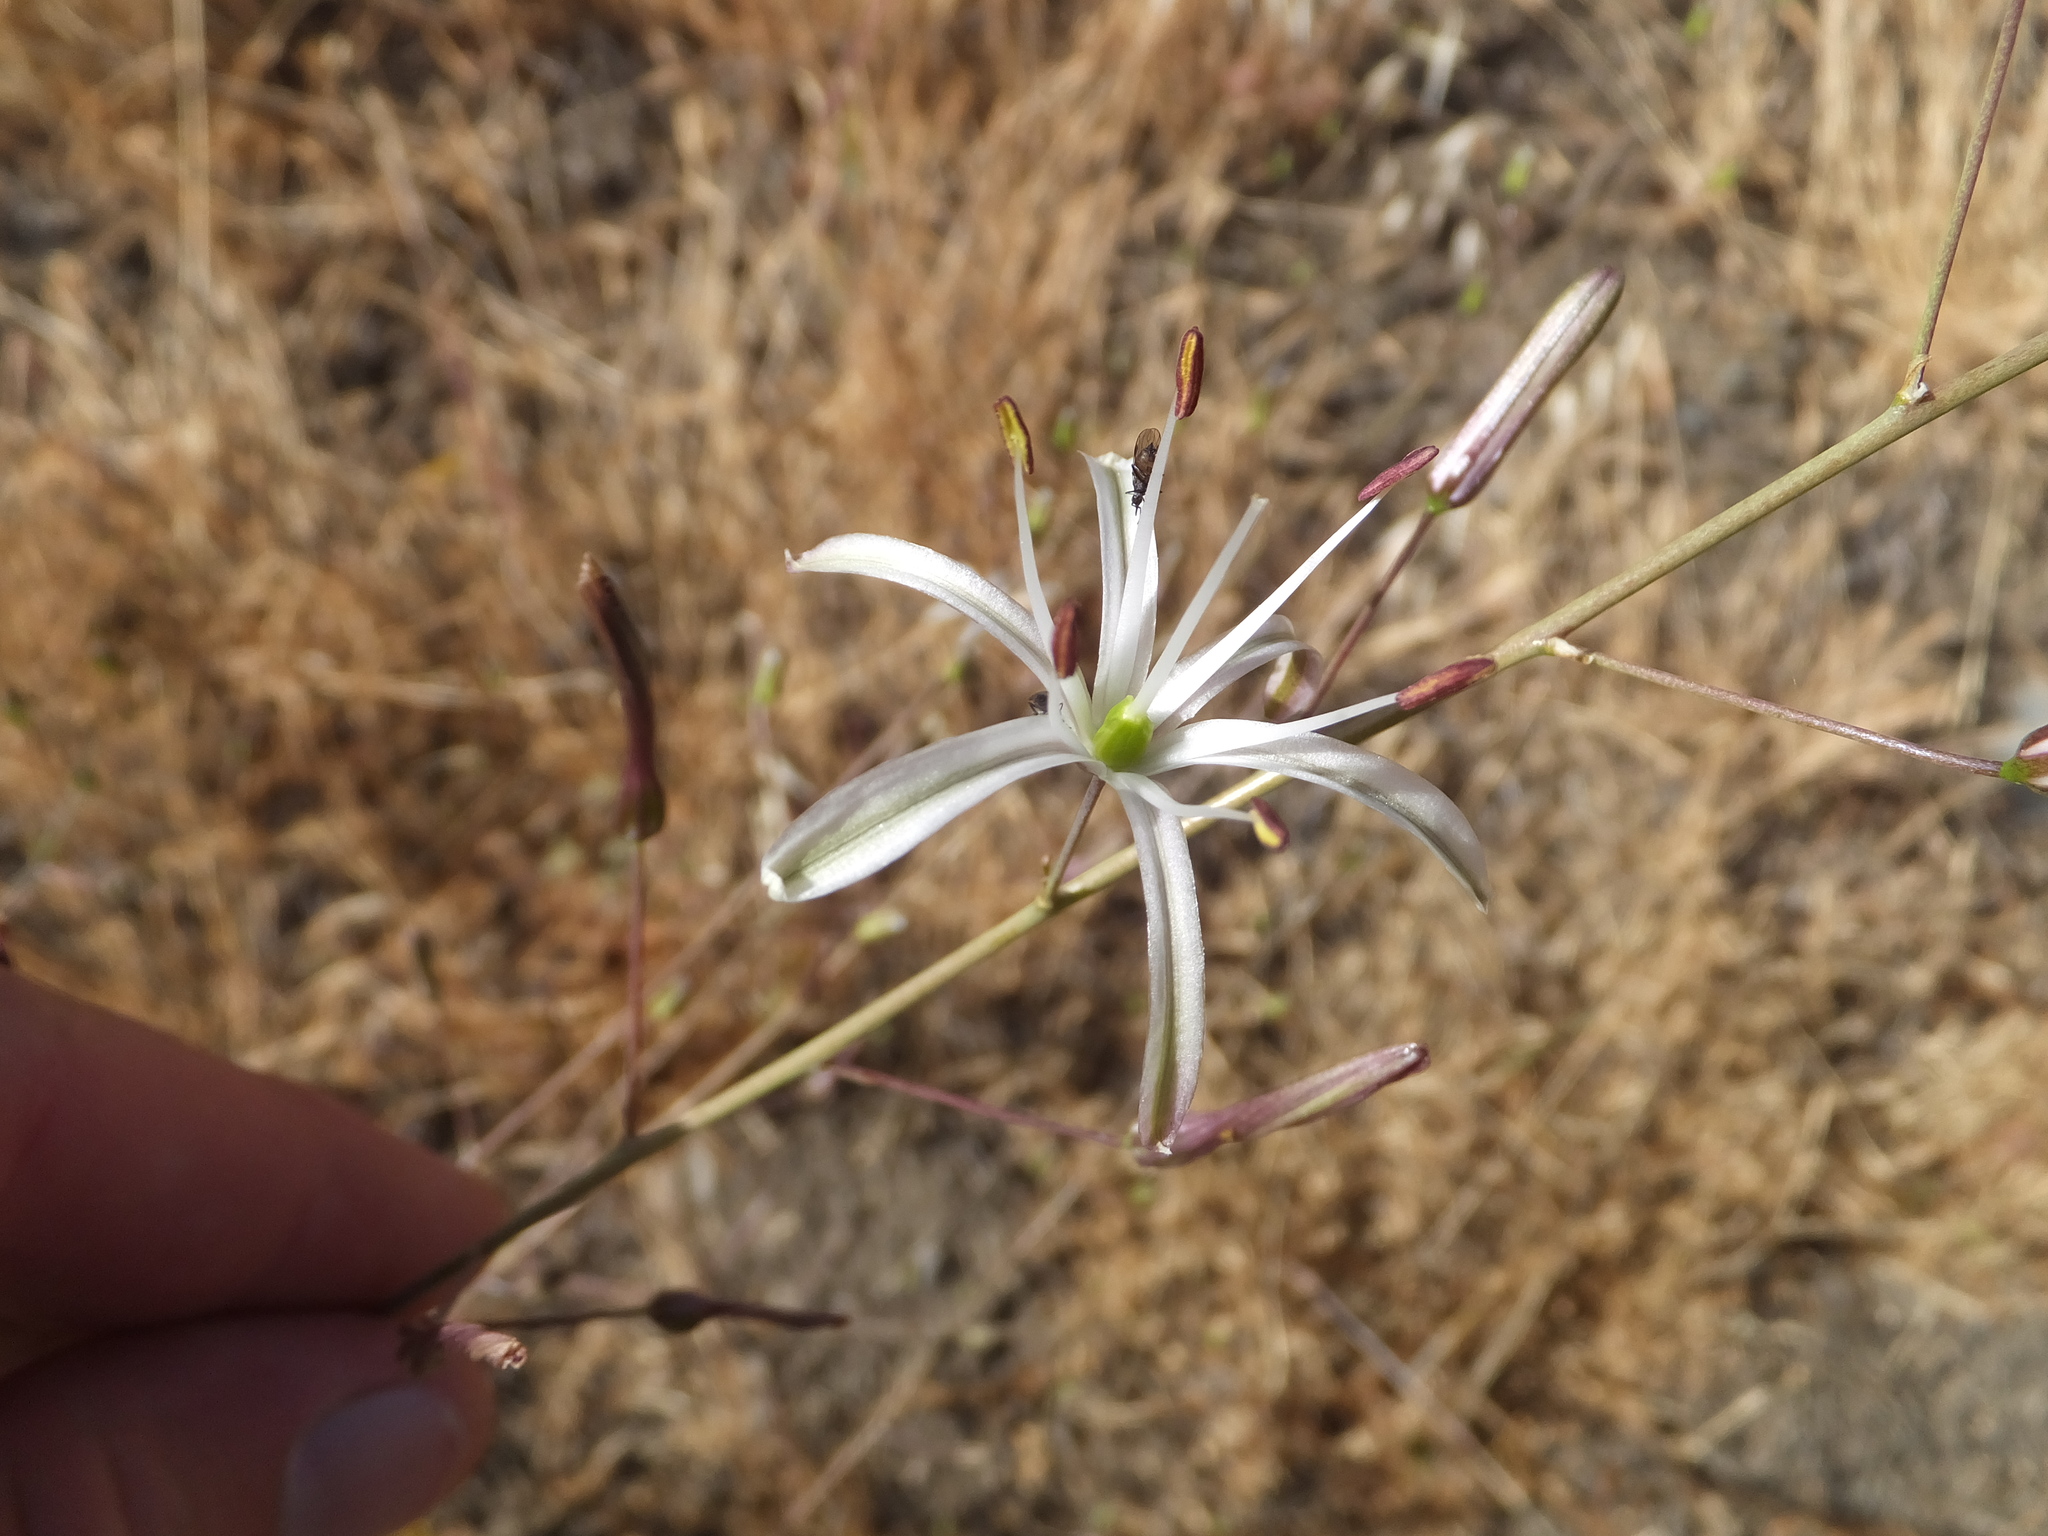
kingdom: Plantae
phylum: Tracheophyta
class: Liliopsida
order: Asparagales
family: Asparagaceae
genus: Chlorogalum
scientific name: Chlorogalum pomeridianum
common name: Amole
